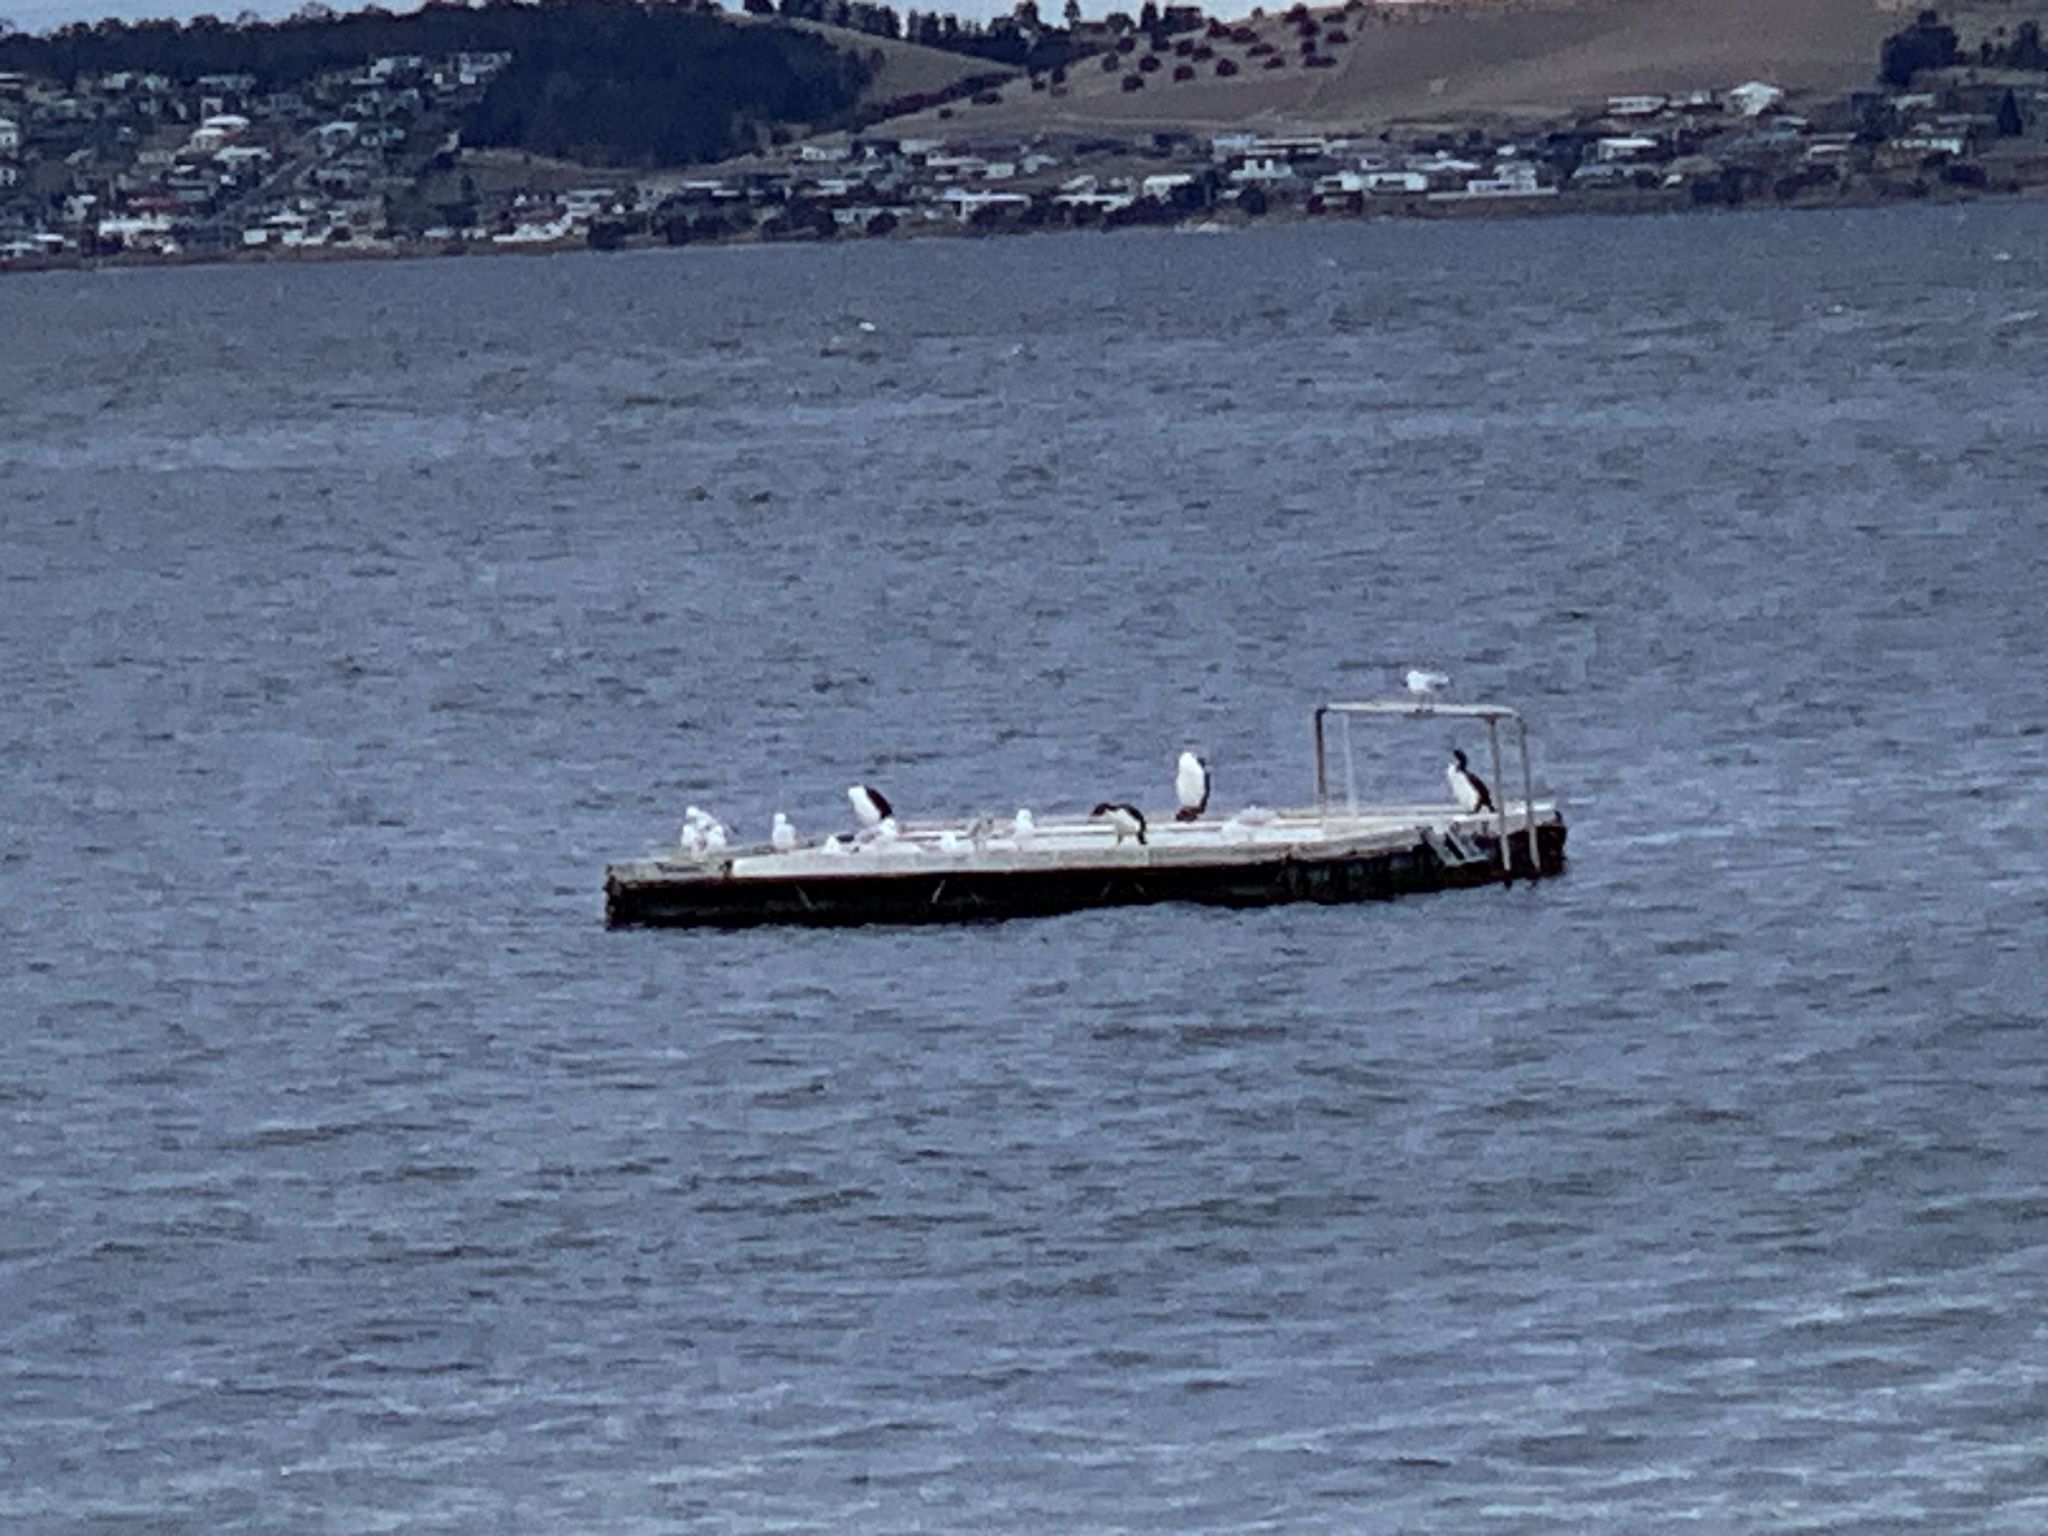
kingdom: Animalia
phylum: Chordata
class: Aves
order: Suliformes
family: Phalacrocoracidae
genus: Phalacrocorax
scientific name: Phalacrocorax fuscescens
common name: Black-faced cormorant
